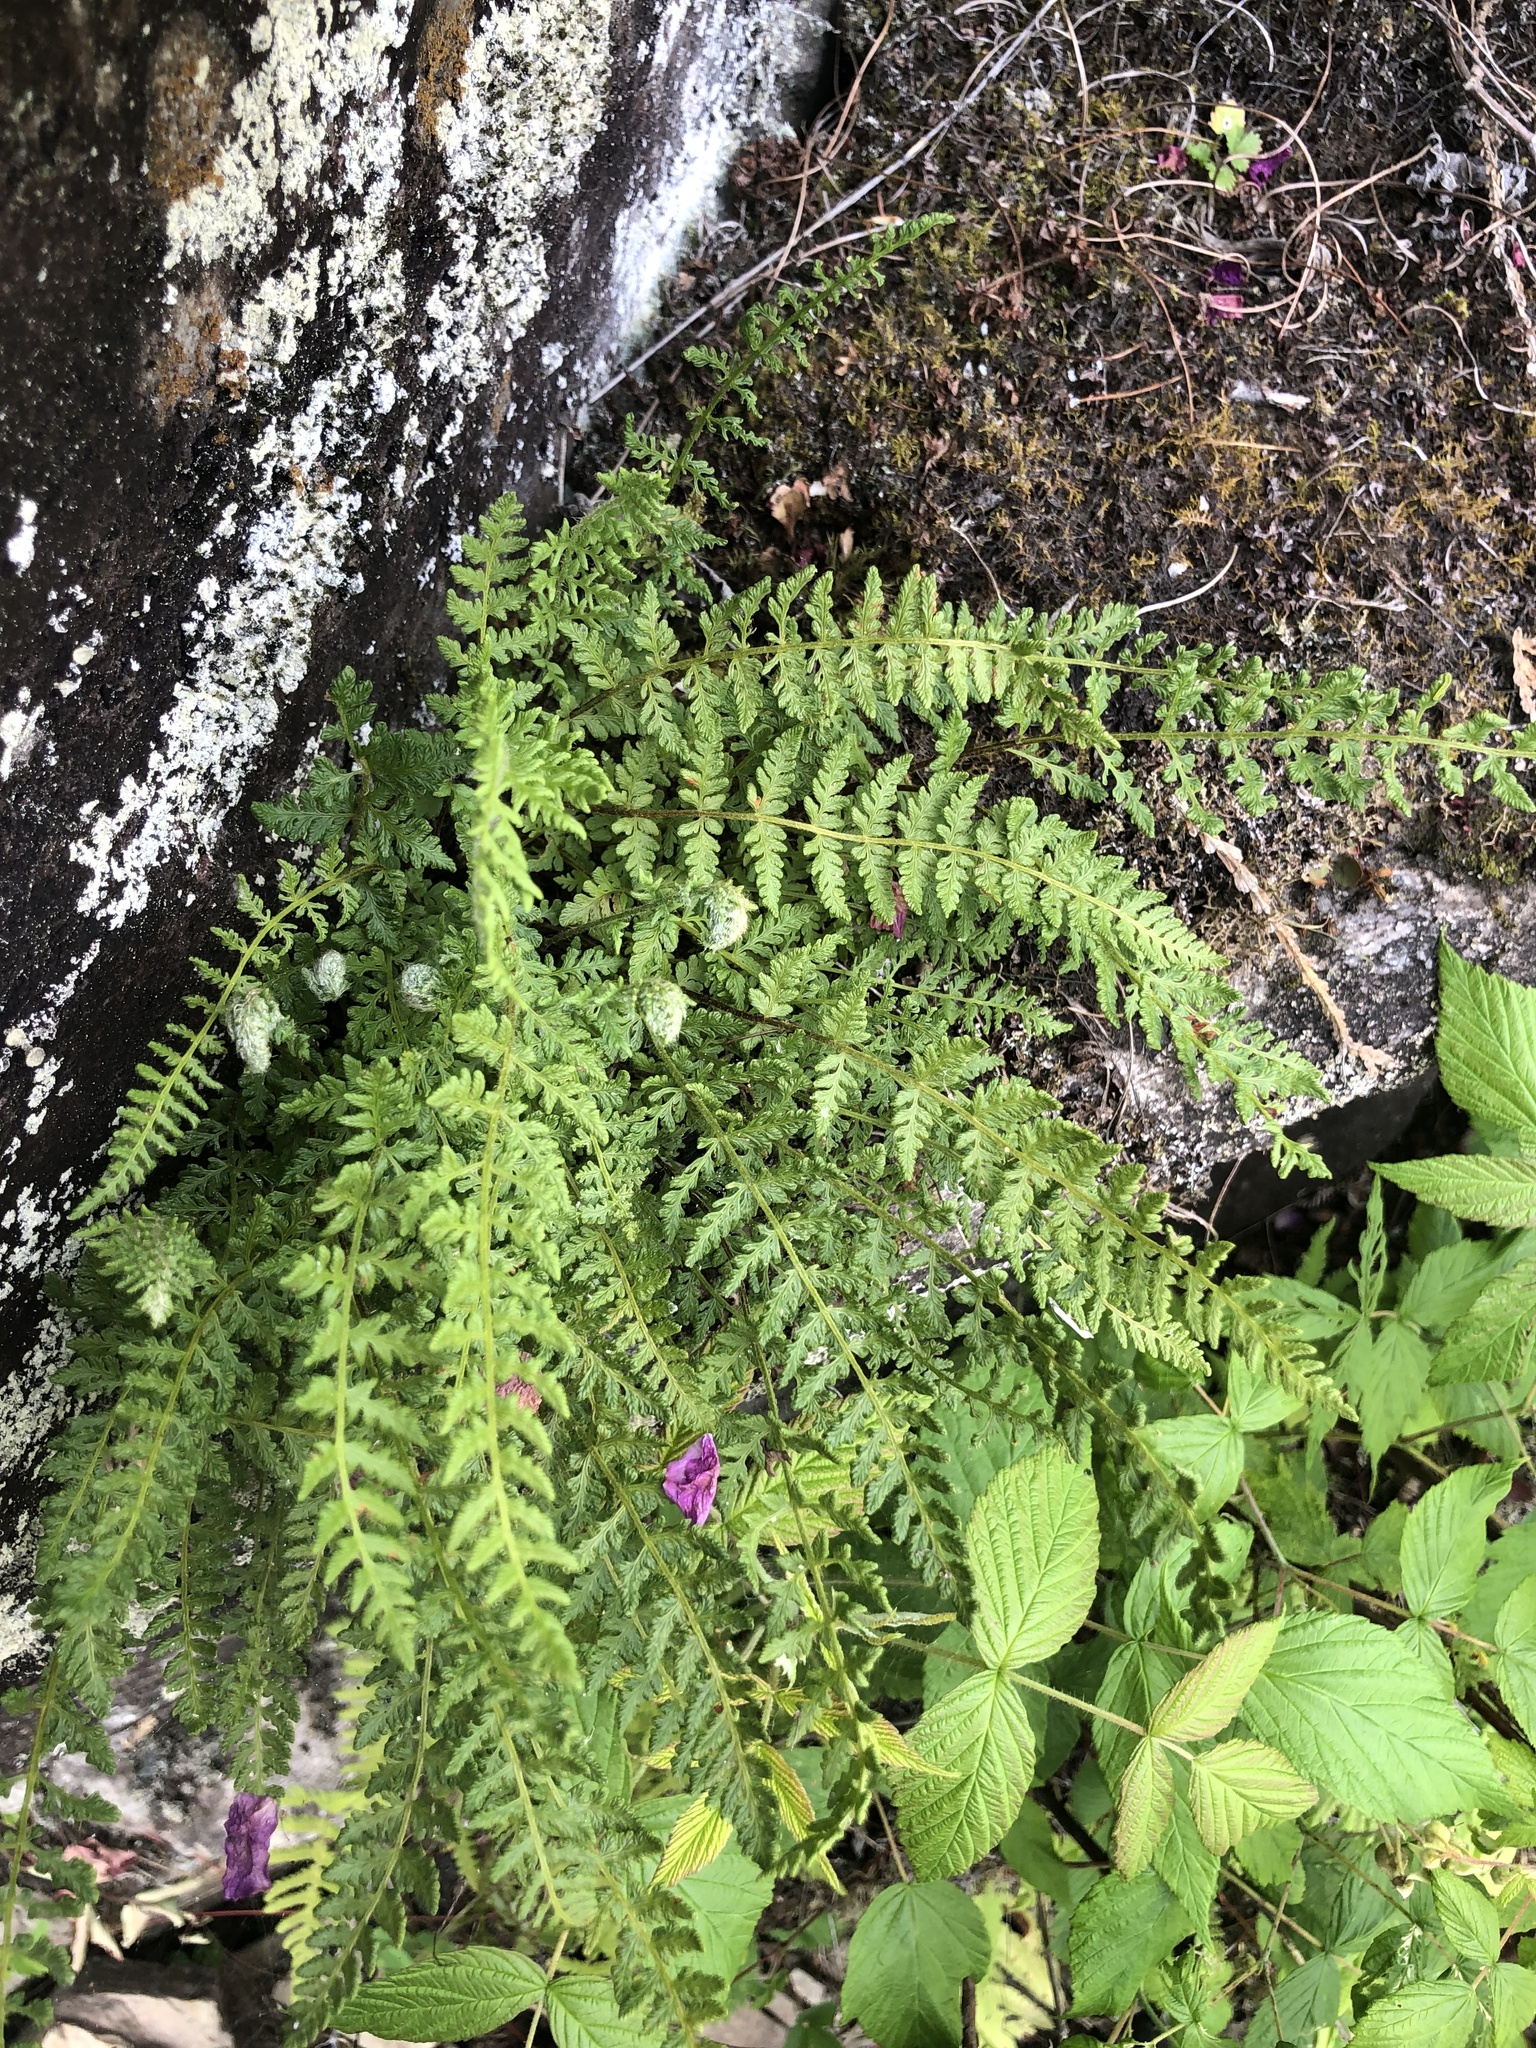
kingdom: Plantae
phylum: Tracheophyta
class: Polypodiopsida
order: Polypodiales
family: Woodsiaceae
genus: Woodsia
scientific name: Woodsia ilvensis
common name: Fragrant woodsia
